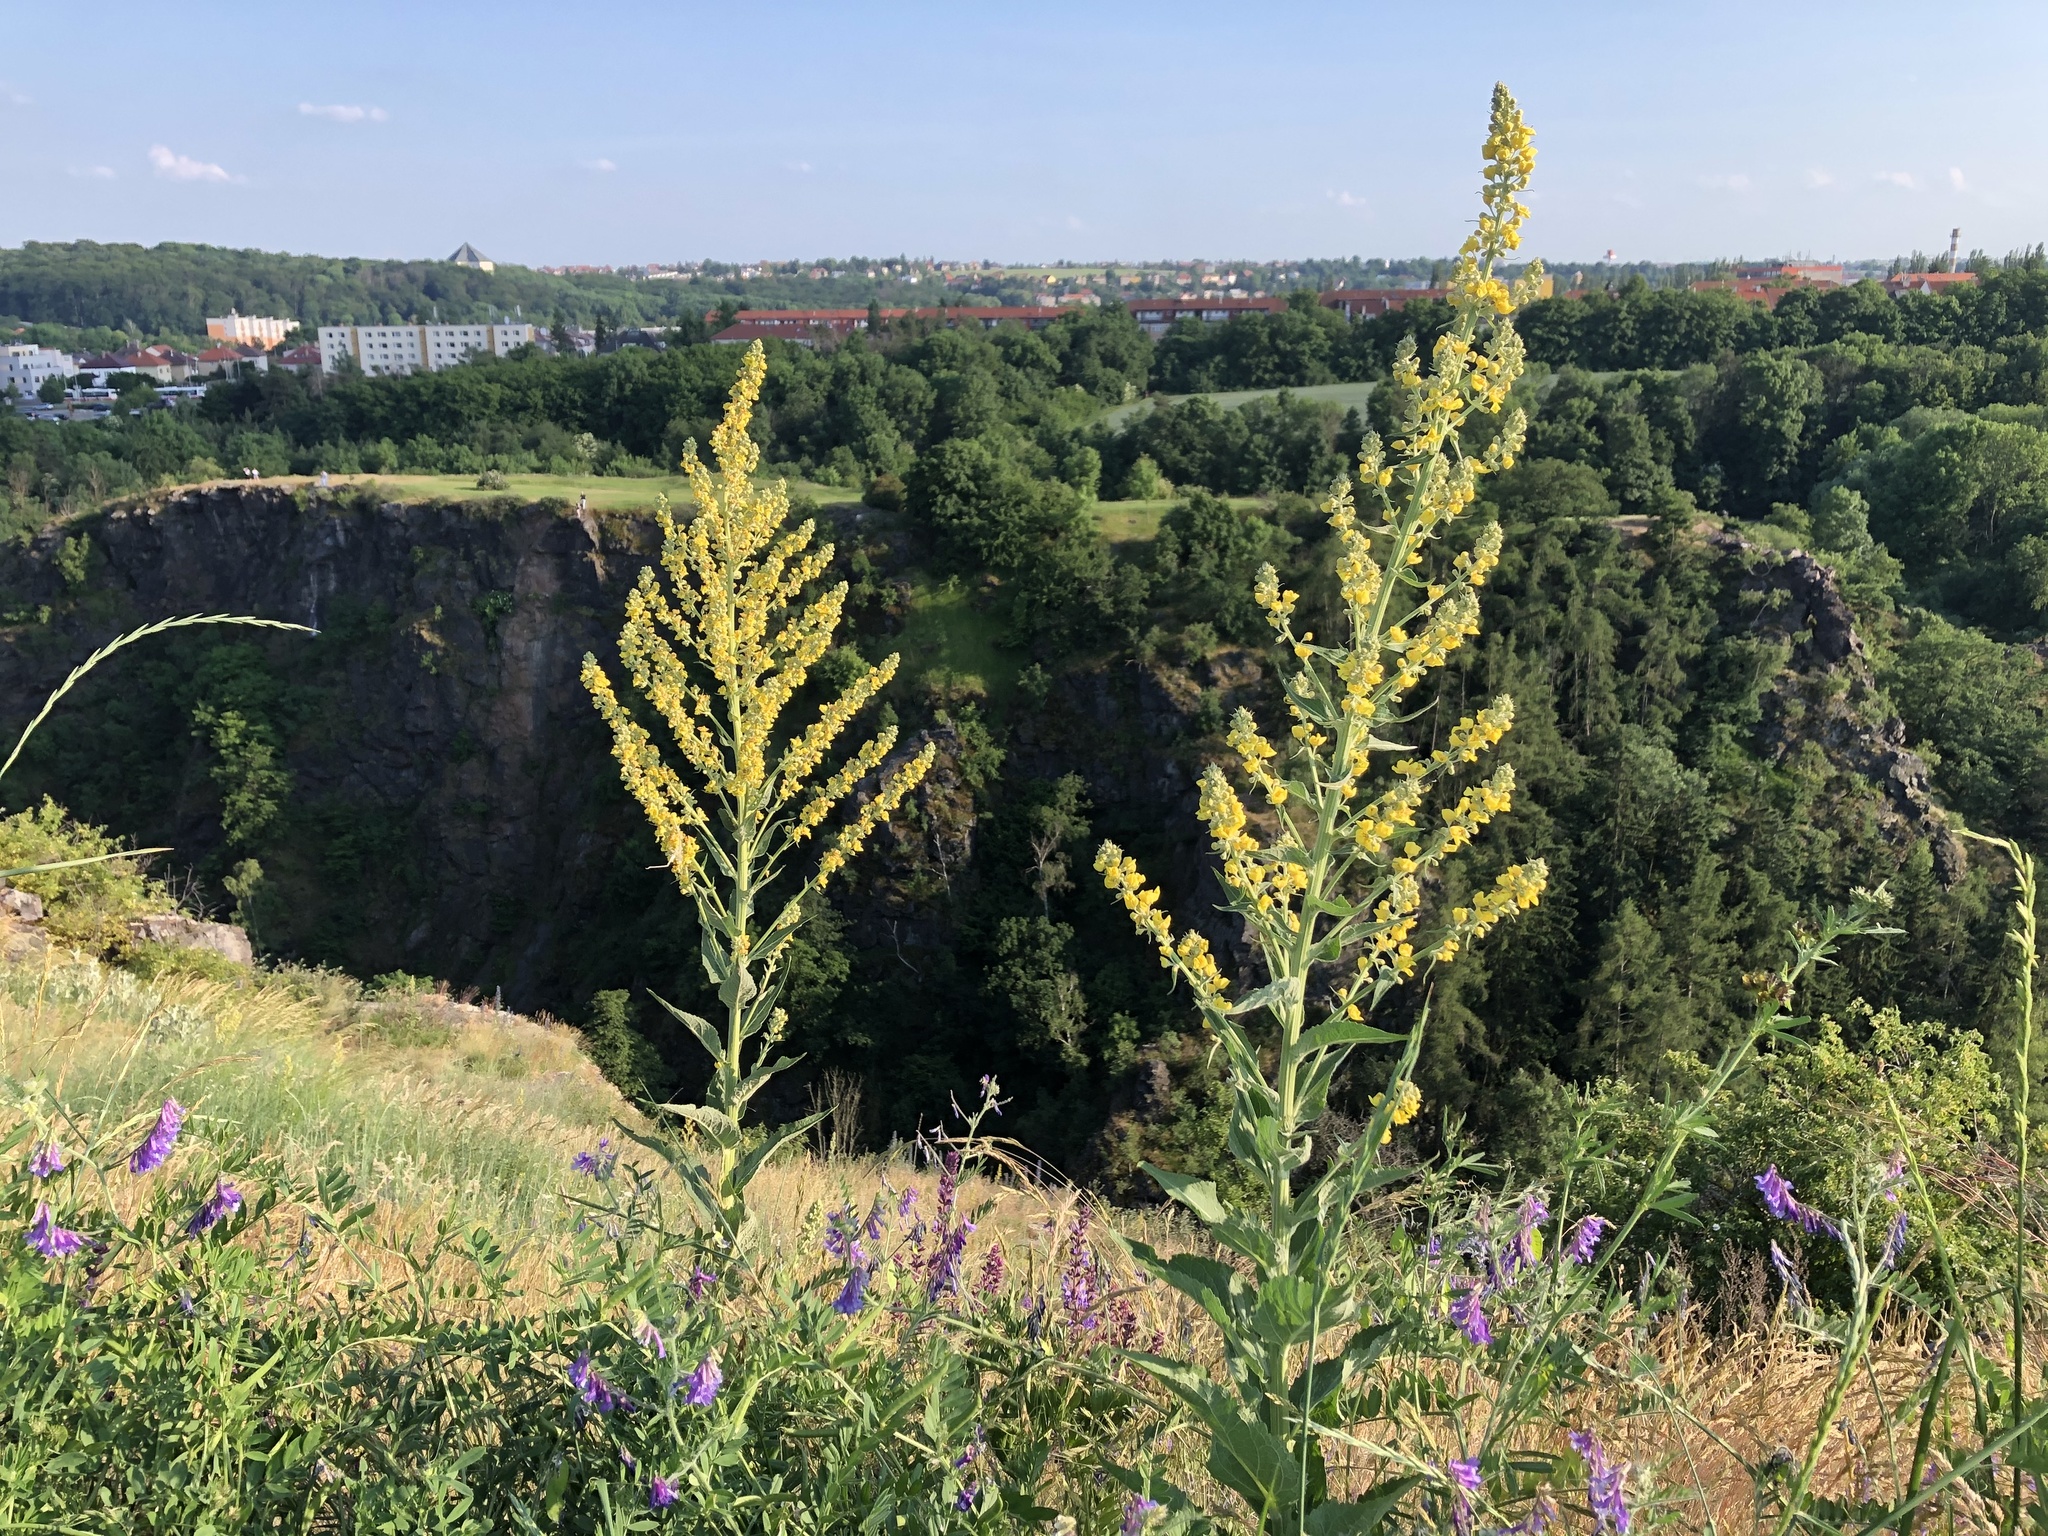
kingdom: Plantae
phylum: Tracheophyta
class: Magnoliopsida
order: Lamiales
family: Scrophulariaceae
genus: Verbascum
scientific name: Verbascum lychnitis
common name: White mullein
